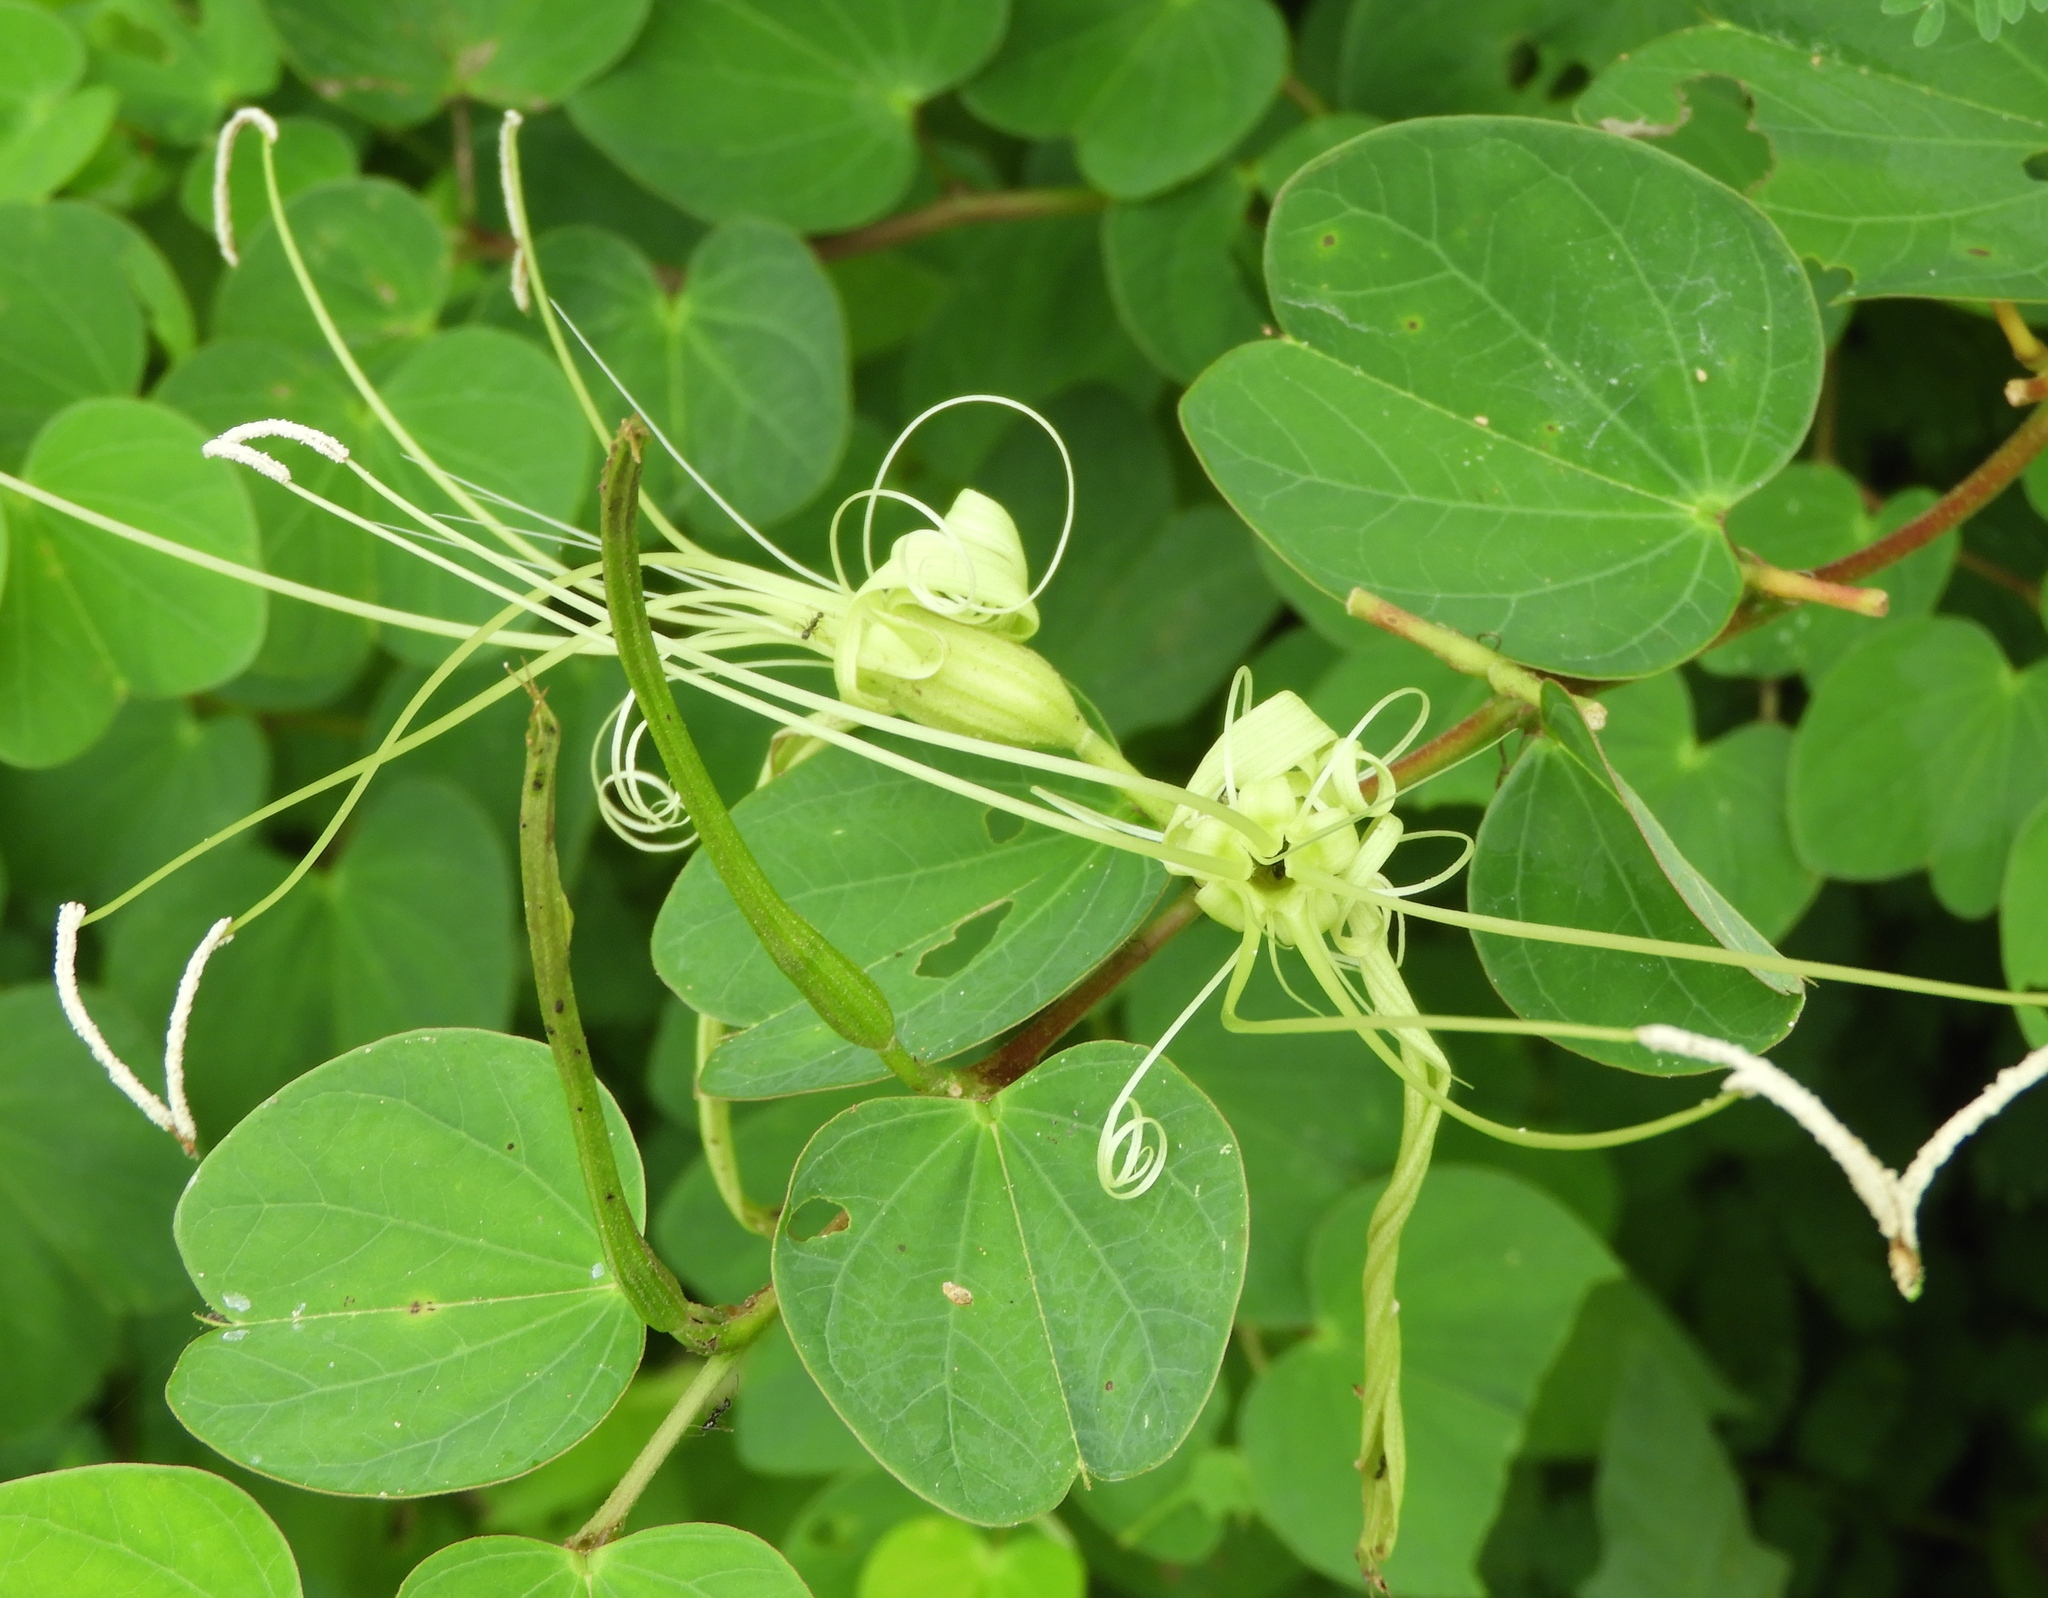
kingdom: Plantae
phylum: Tracheophyta
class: Magnoliopsida
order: Fabales
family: Fabaceae
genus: Bauhinia
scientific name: Bauhinia pauletia
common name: Railway-fence bauhinia
